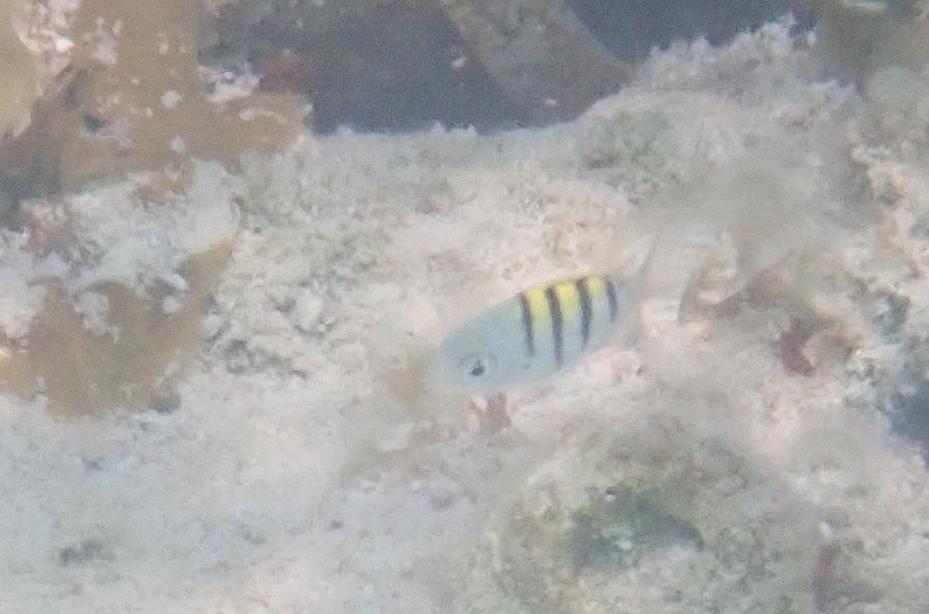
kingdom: Animalia
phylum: Chordata
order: Perciformes
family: Pomacentridae
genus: Abudefduf
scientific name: Abudefduf saxatilis
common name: Sergeant major
